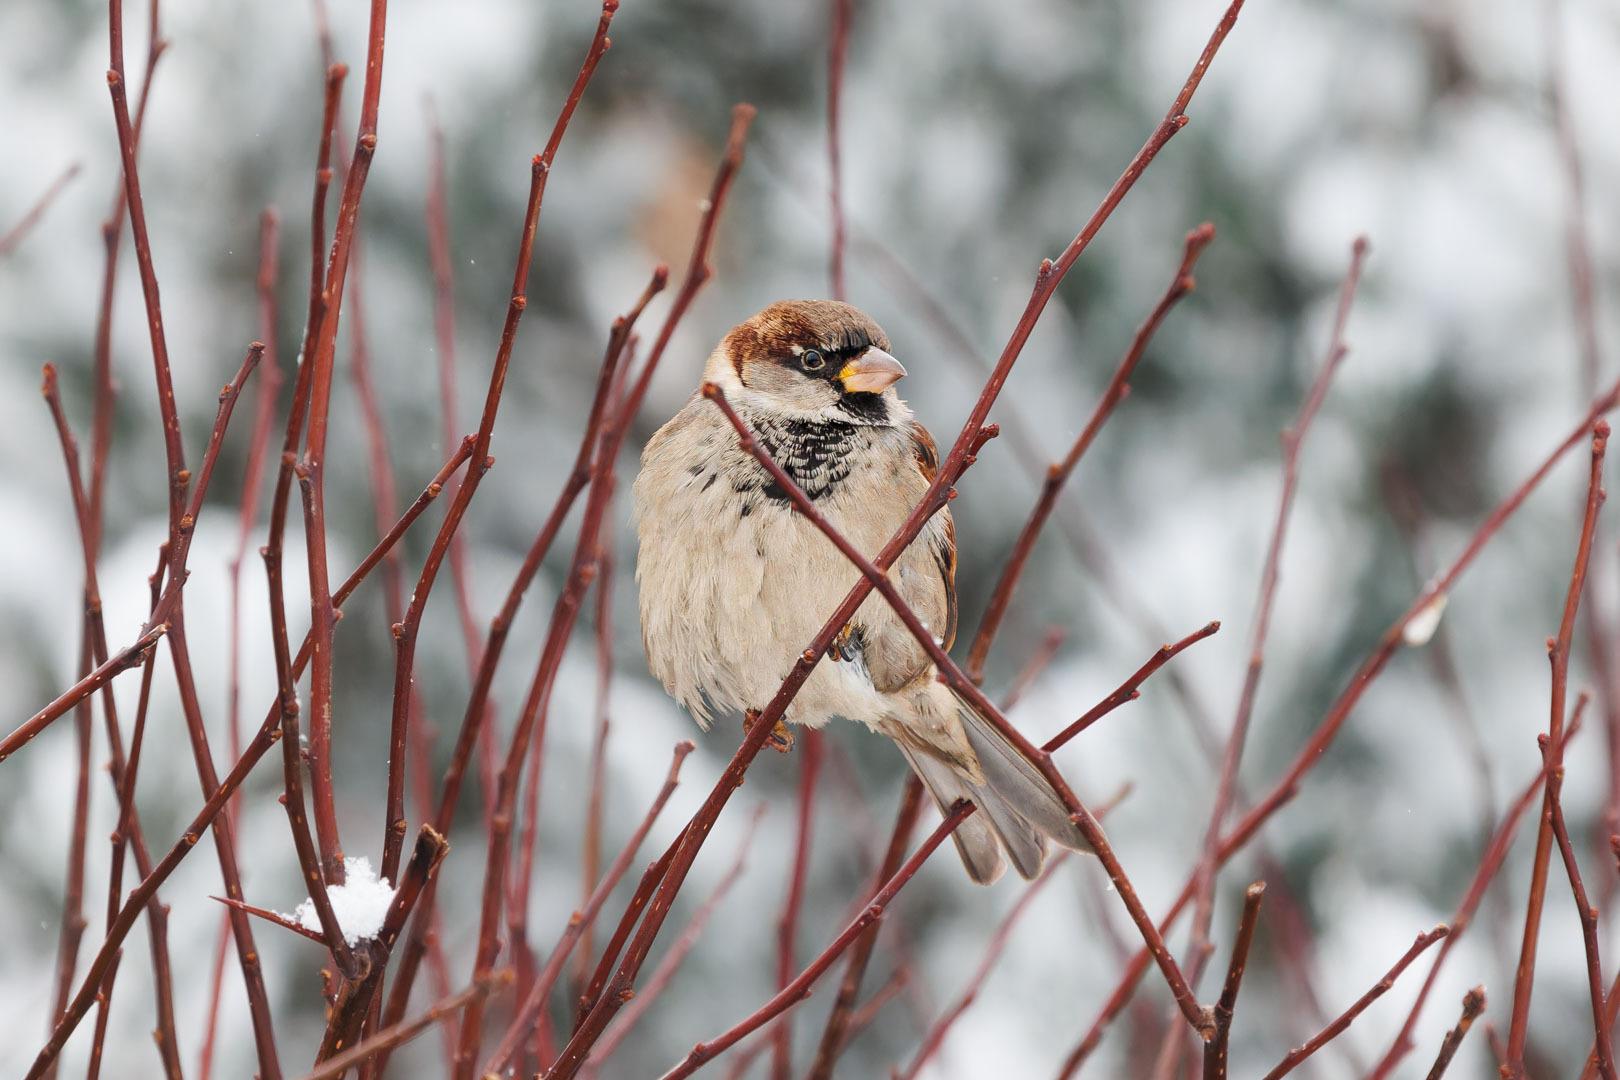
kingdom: Animalia
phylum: Chordata
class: Aves
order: Passeriformes
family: Passeridae
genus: Passer
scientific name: Passer domesticus
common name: House sparrow
